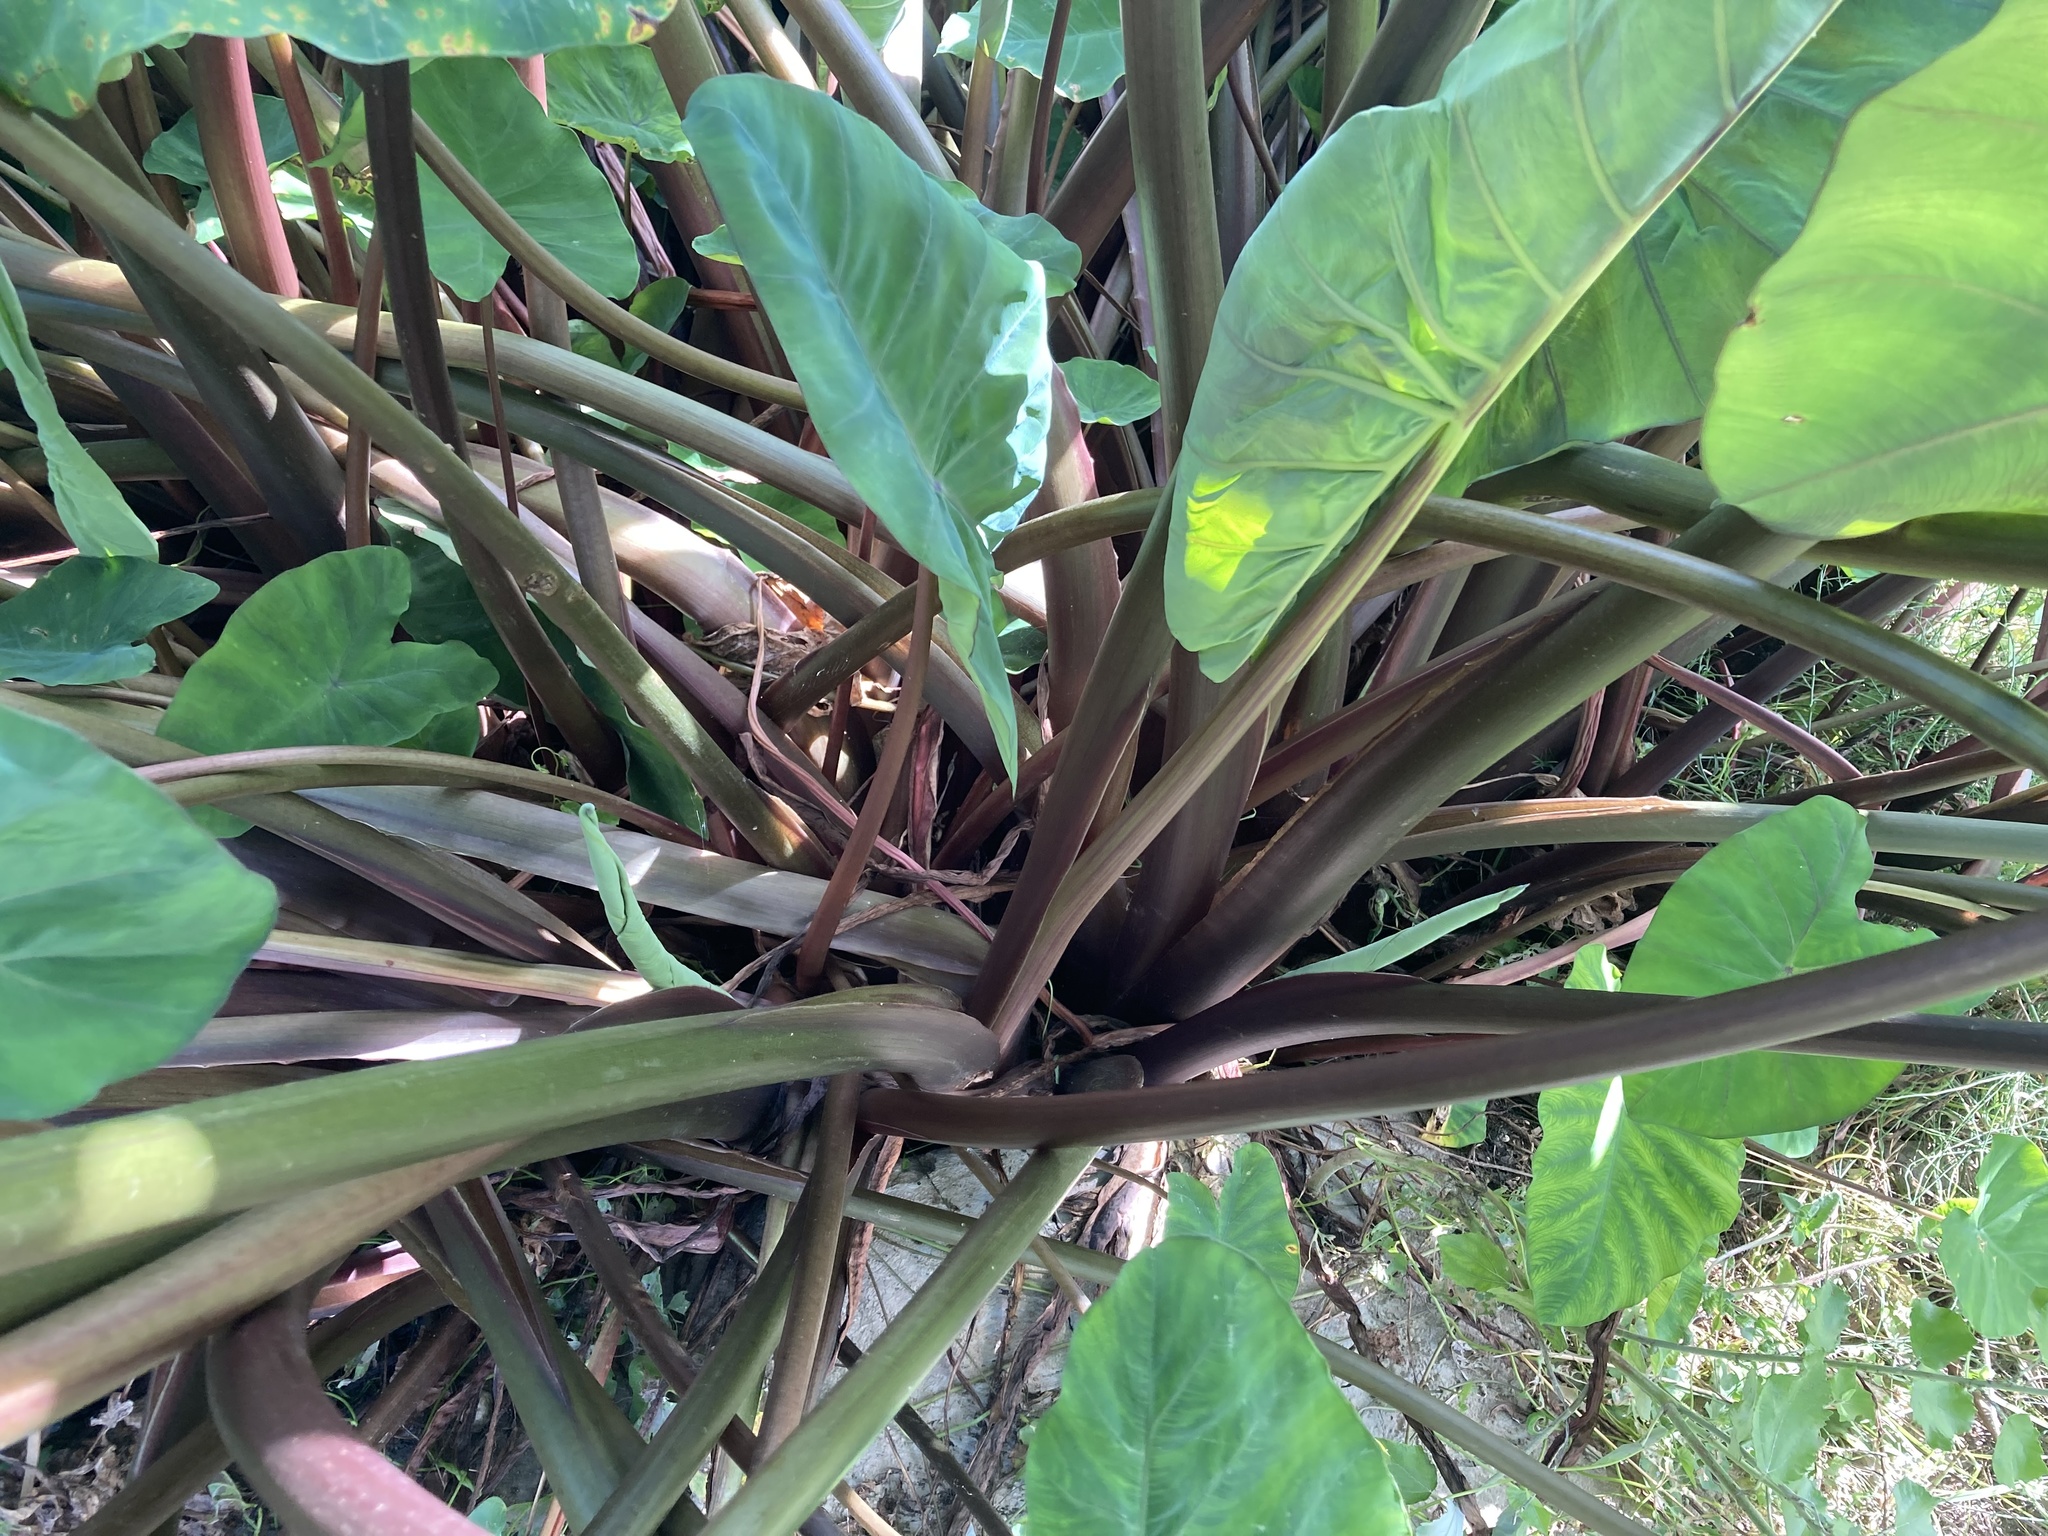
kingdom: Plantae
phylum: Tracheophyta
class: Liliopsida
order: Alismatales
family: Araceae
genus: Colocasia
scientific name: Colocasia esculenta
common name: Taro
